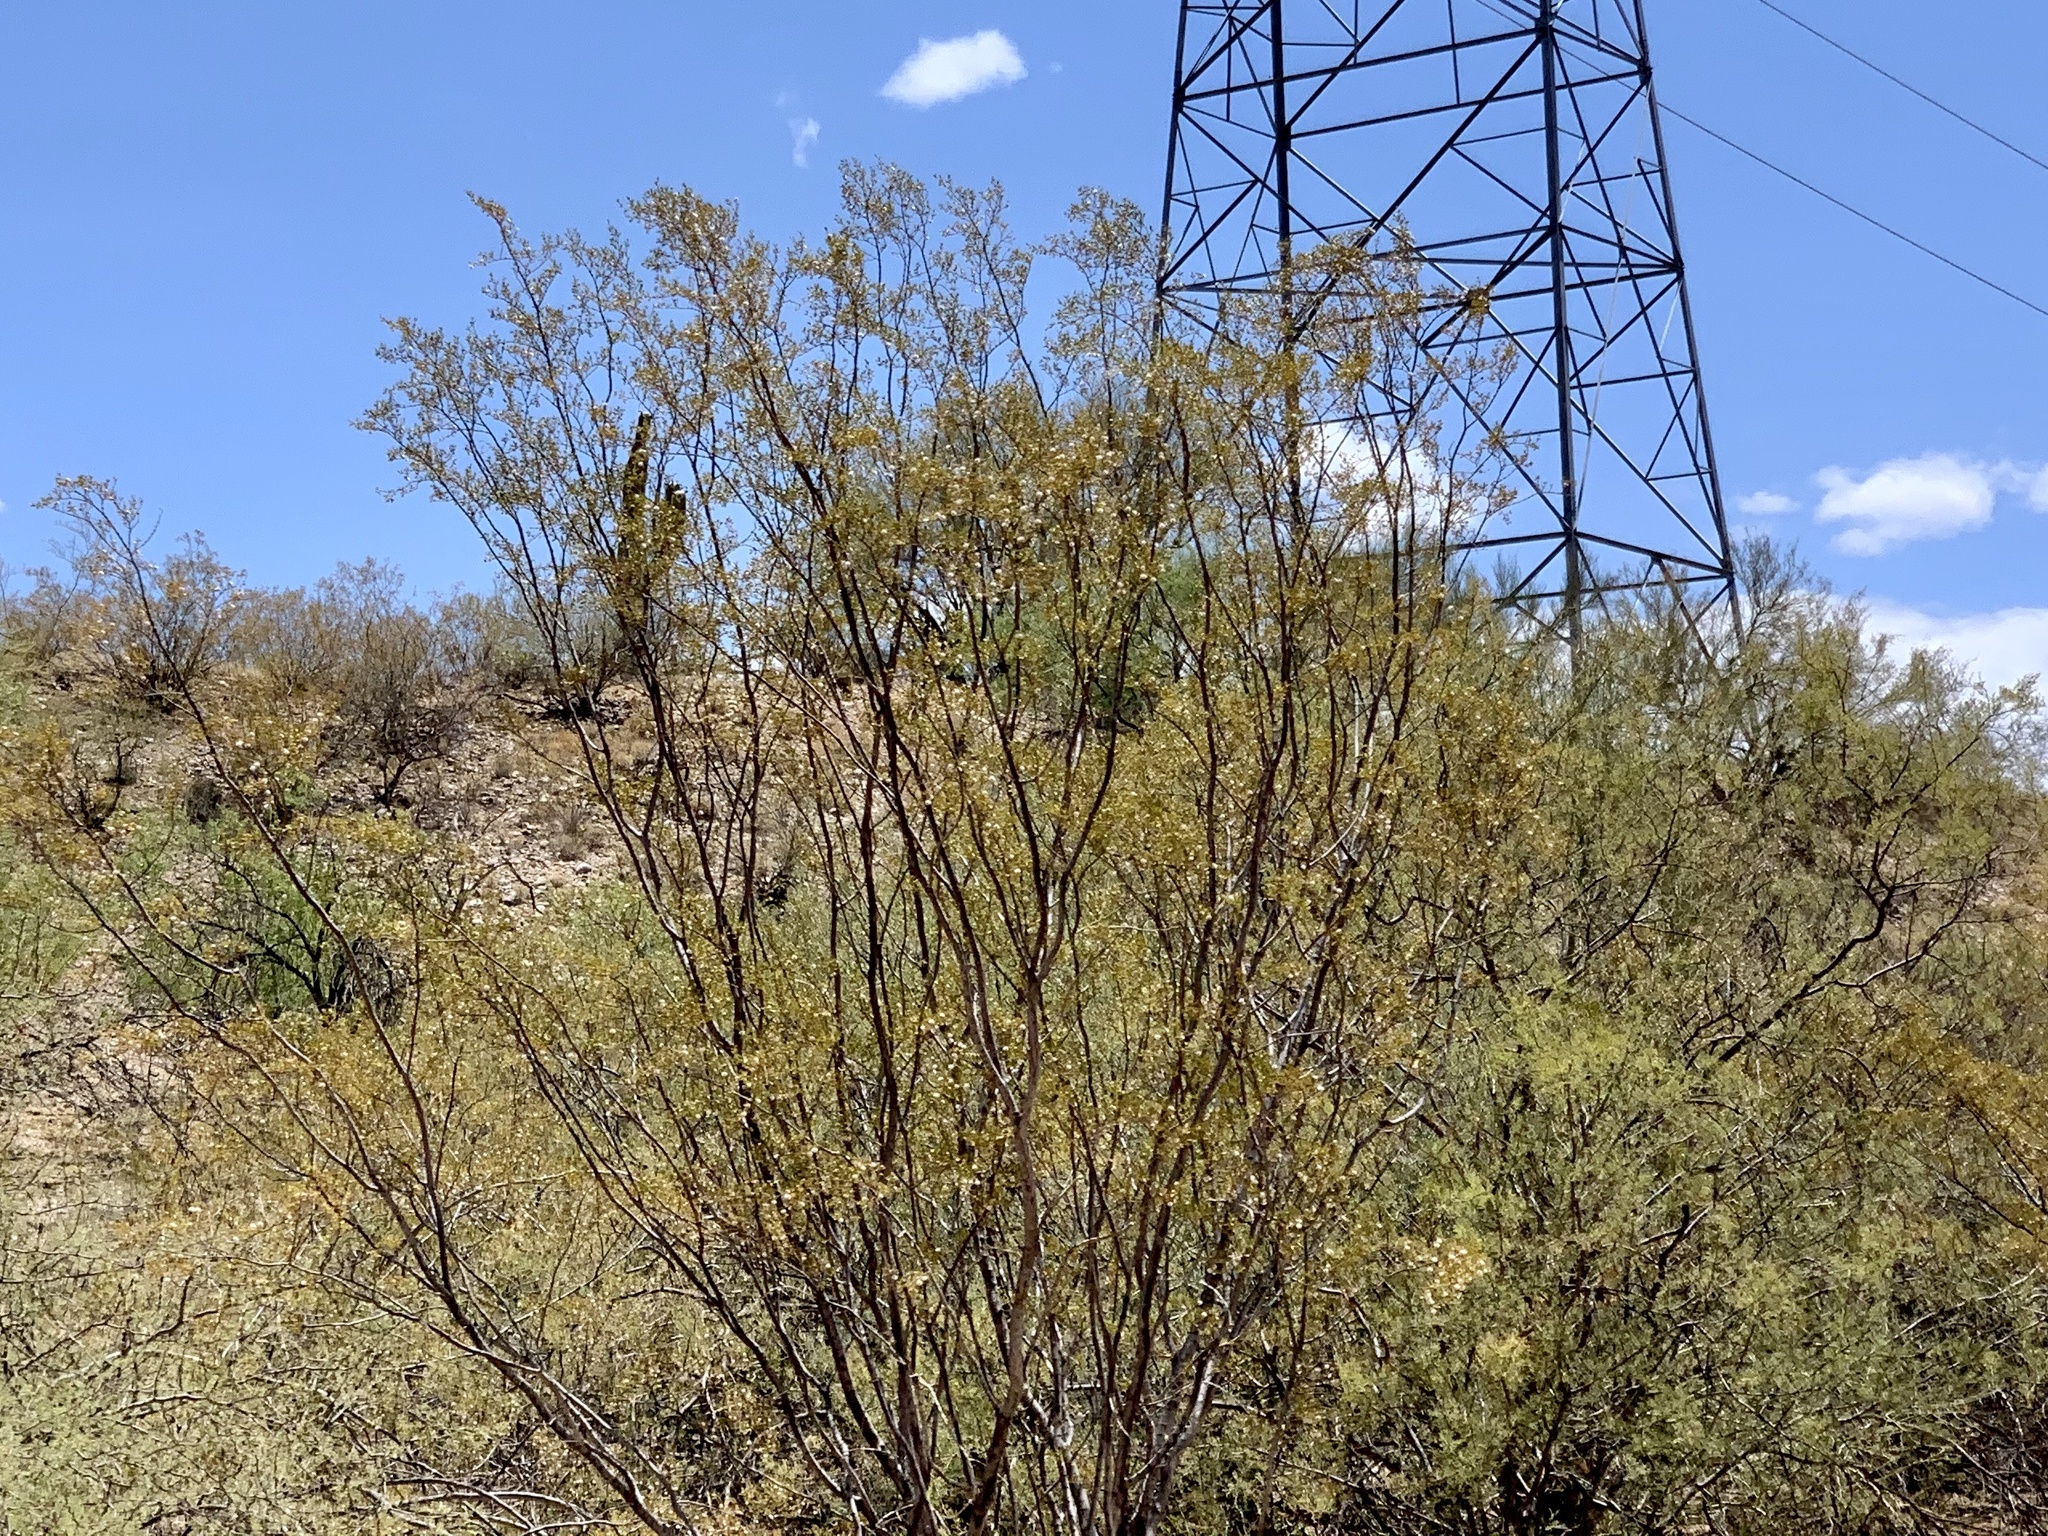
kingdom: Plantae
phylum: Tracheophyta
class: Magnoliopsida
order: Zygophyllales
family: Zygophyllaceae
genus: Larrea
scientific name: Larrea tridentata
